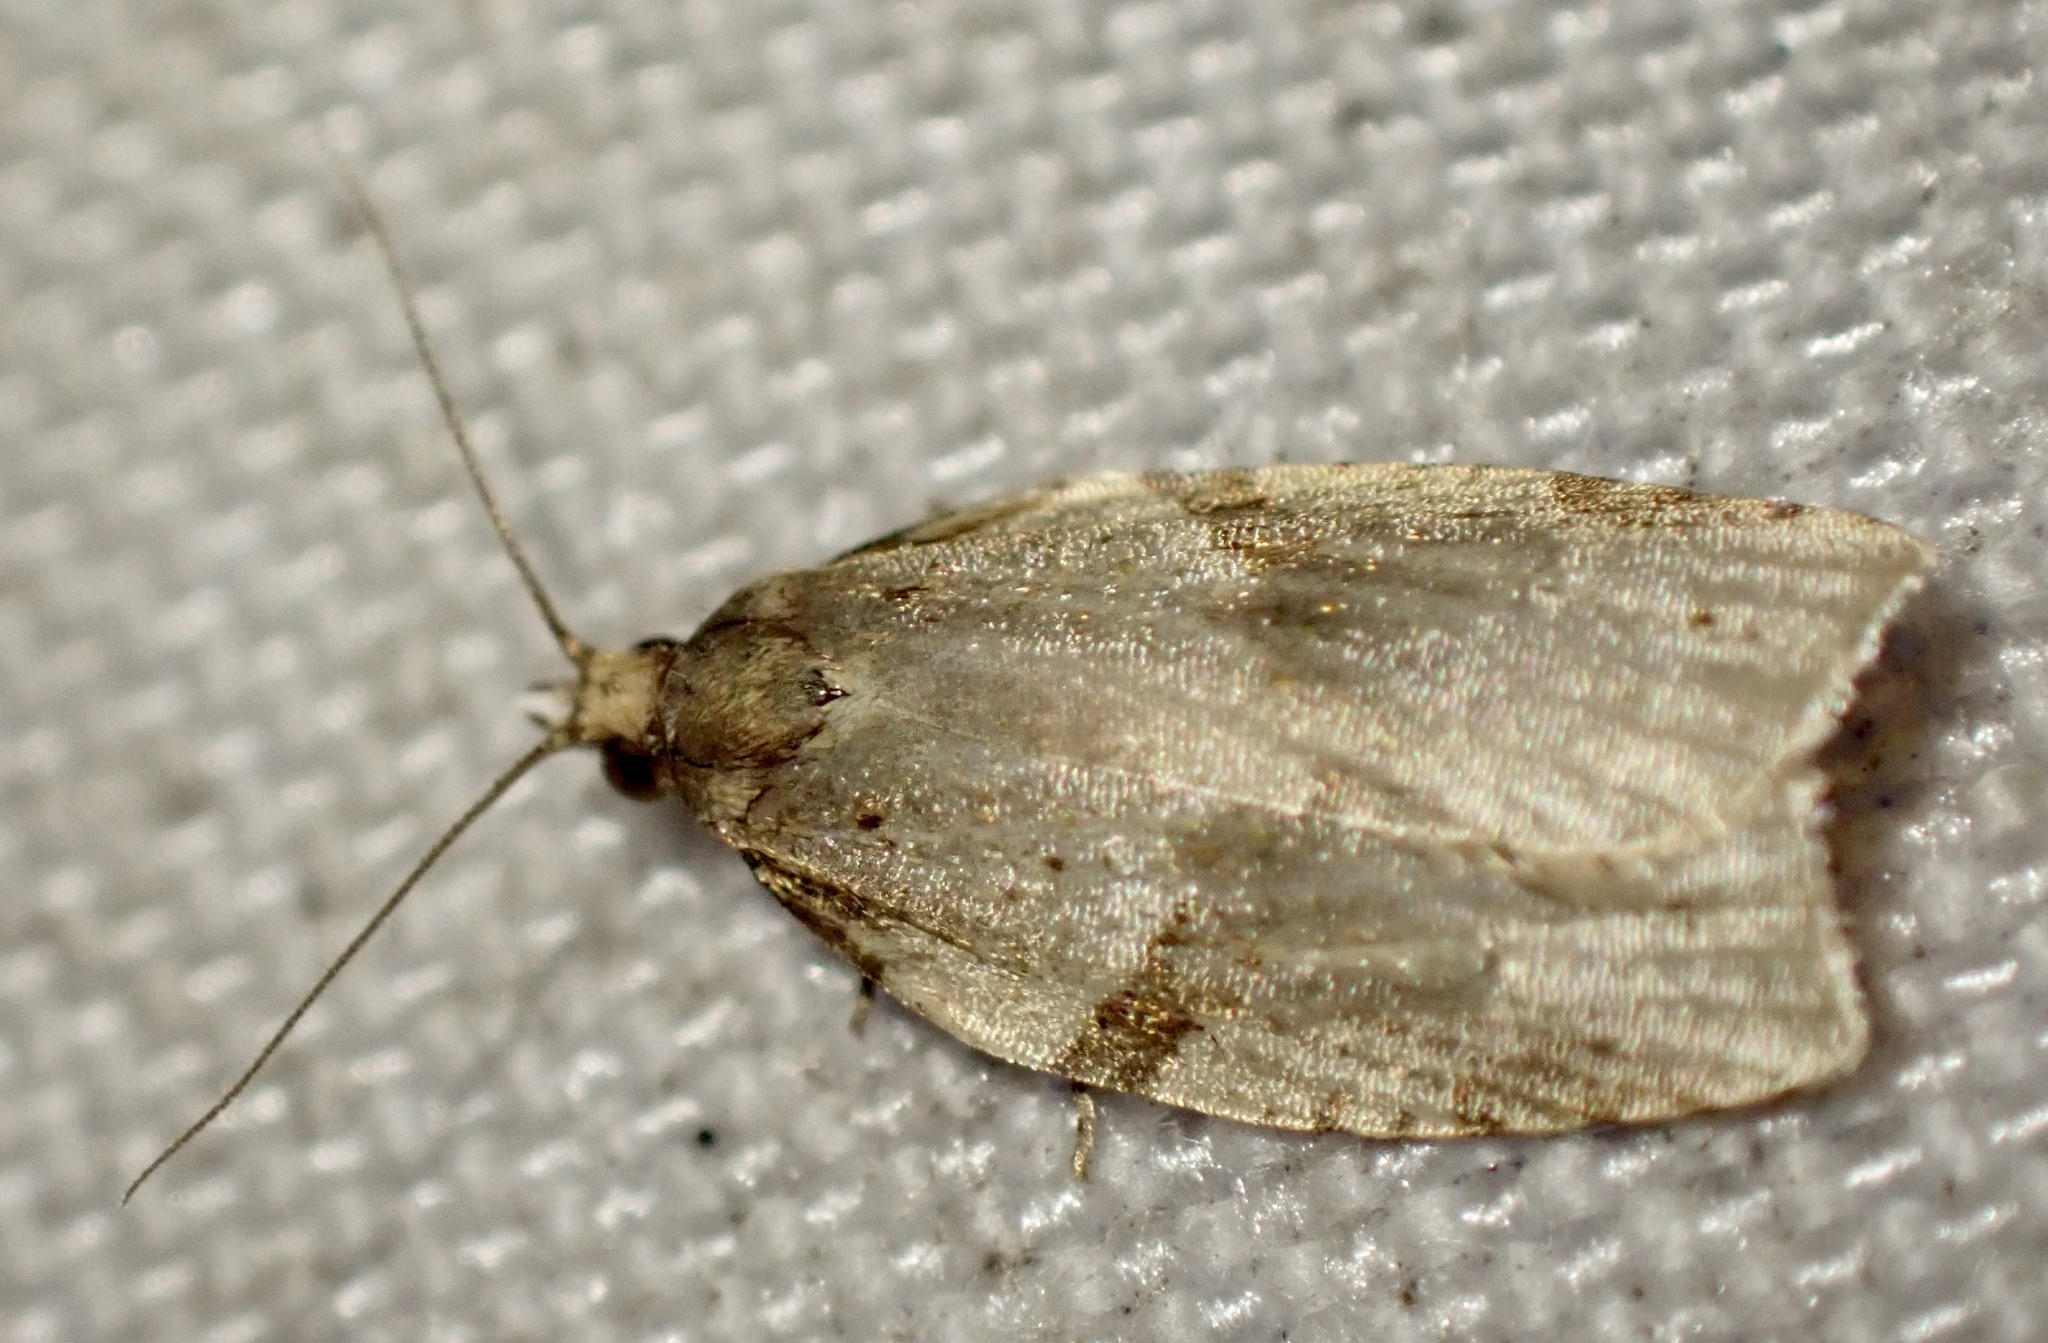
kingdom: Animalia
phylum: Arthropoda
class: Insecta
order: Lepidoptera
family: Tortricidae
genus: Clepsis
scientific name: Clepsis spectrana
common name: Cyclamen tortrix
